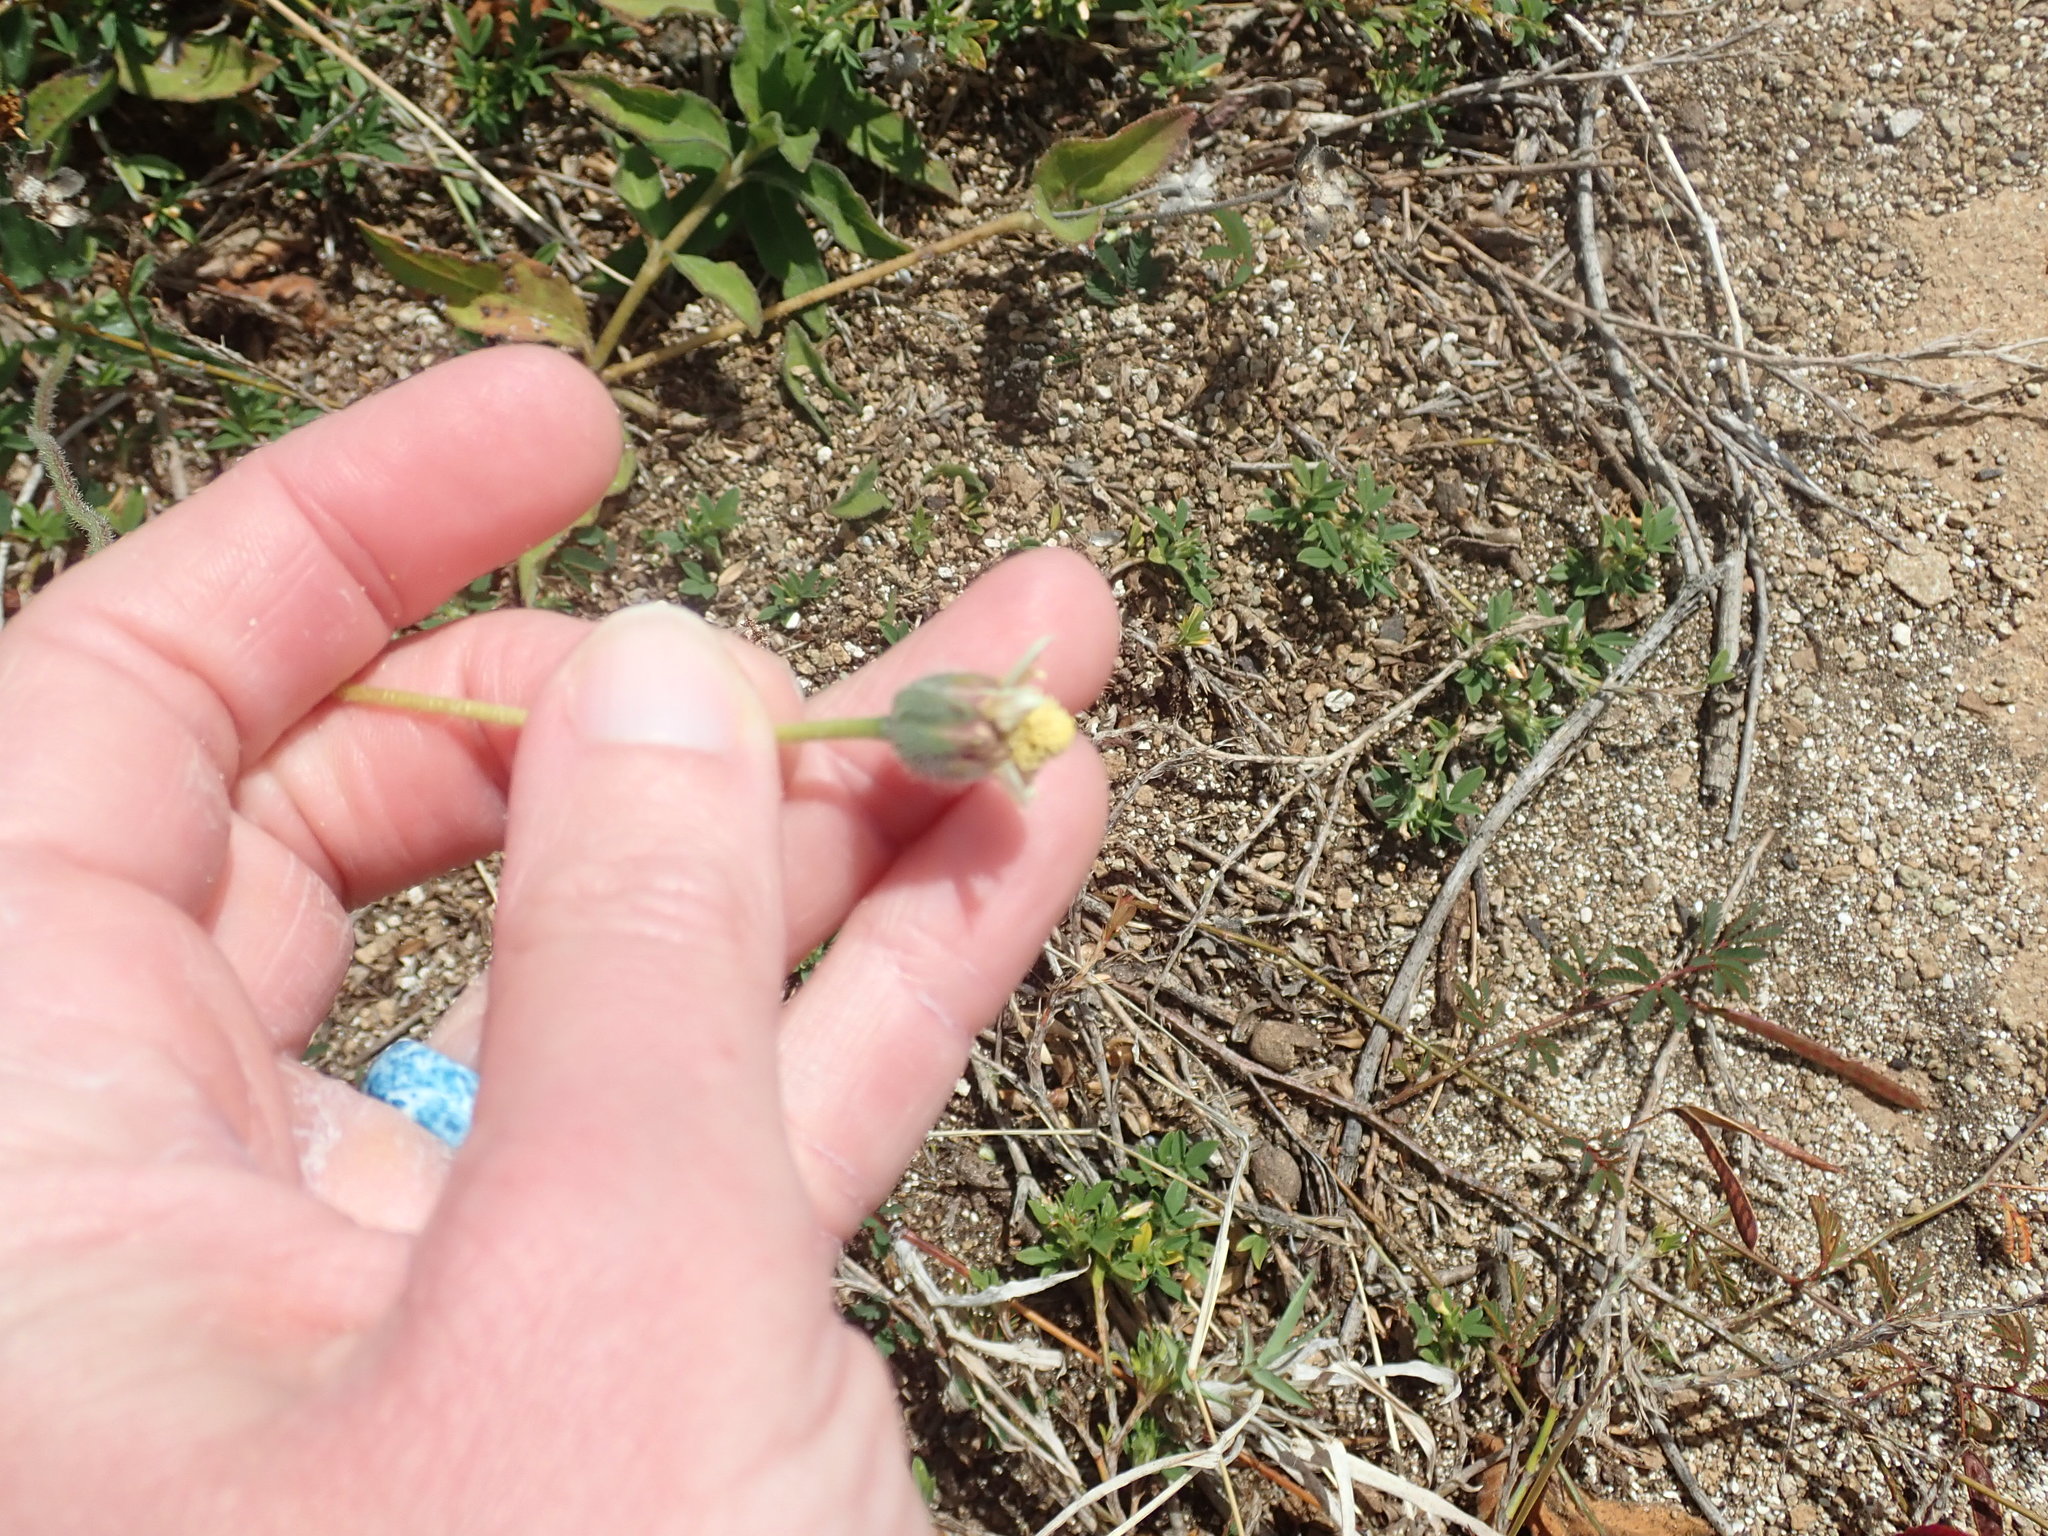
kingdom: Plantae
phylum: Tracheophyta
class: Magnoliopsida
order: Asterales
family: Asteraceae
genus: Tridax
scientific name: Tridax procumbens
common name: Coatbuttons
